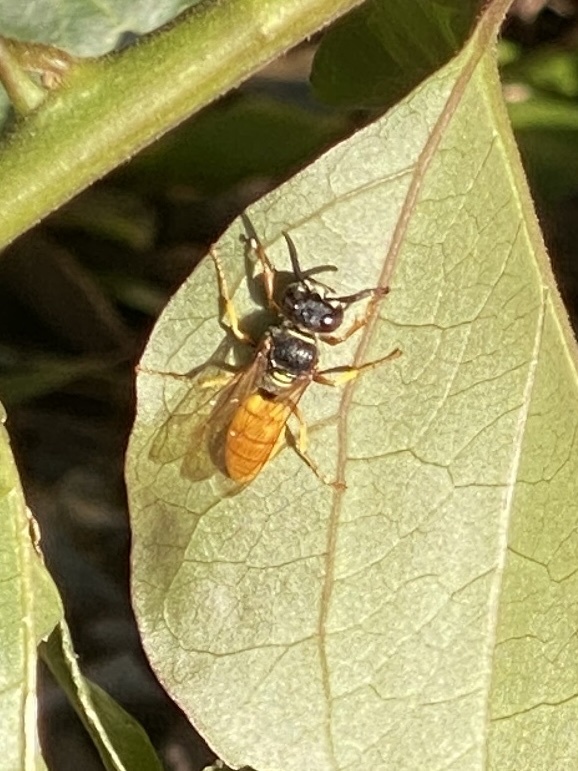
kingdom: Animalia
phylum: Arthropoda
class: Insecta
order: Hymenoptera
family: Crabronidae
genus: Philanthus
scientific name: Philanthus triangulum
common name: Bee wolf
